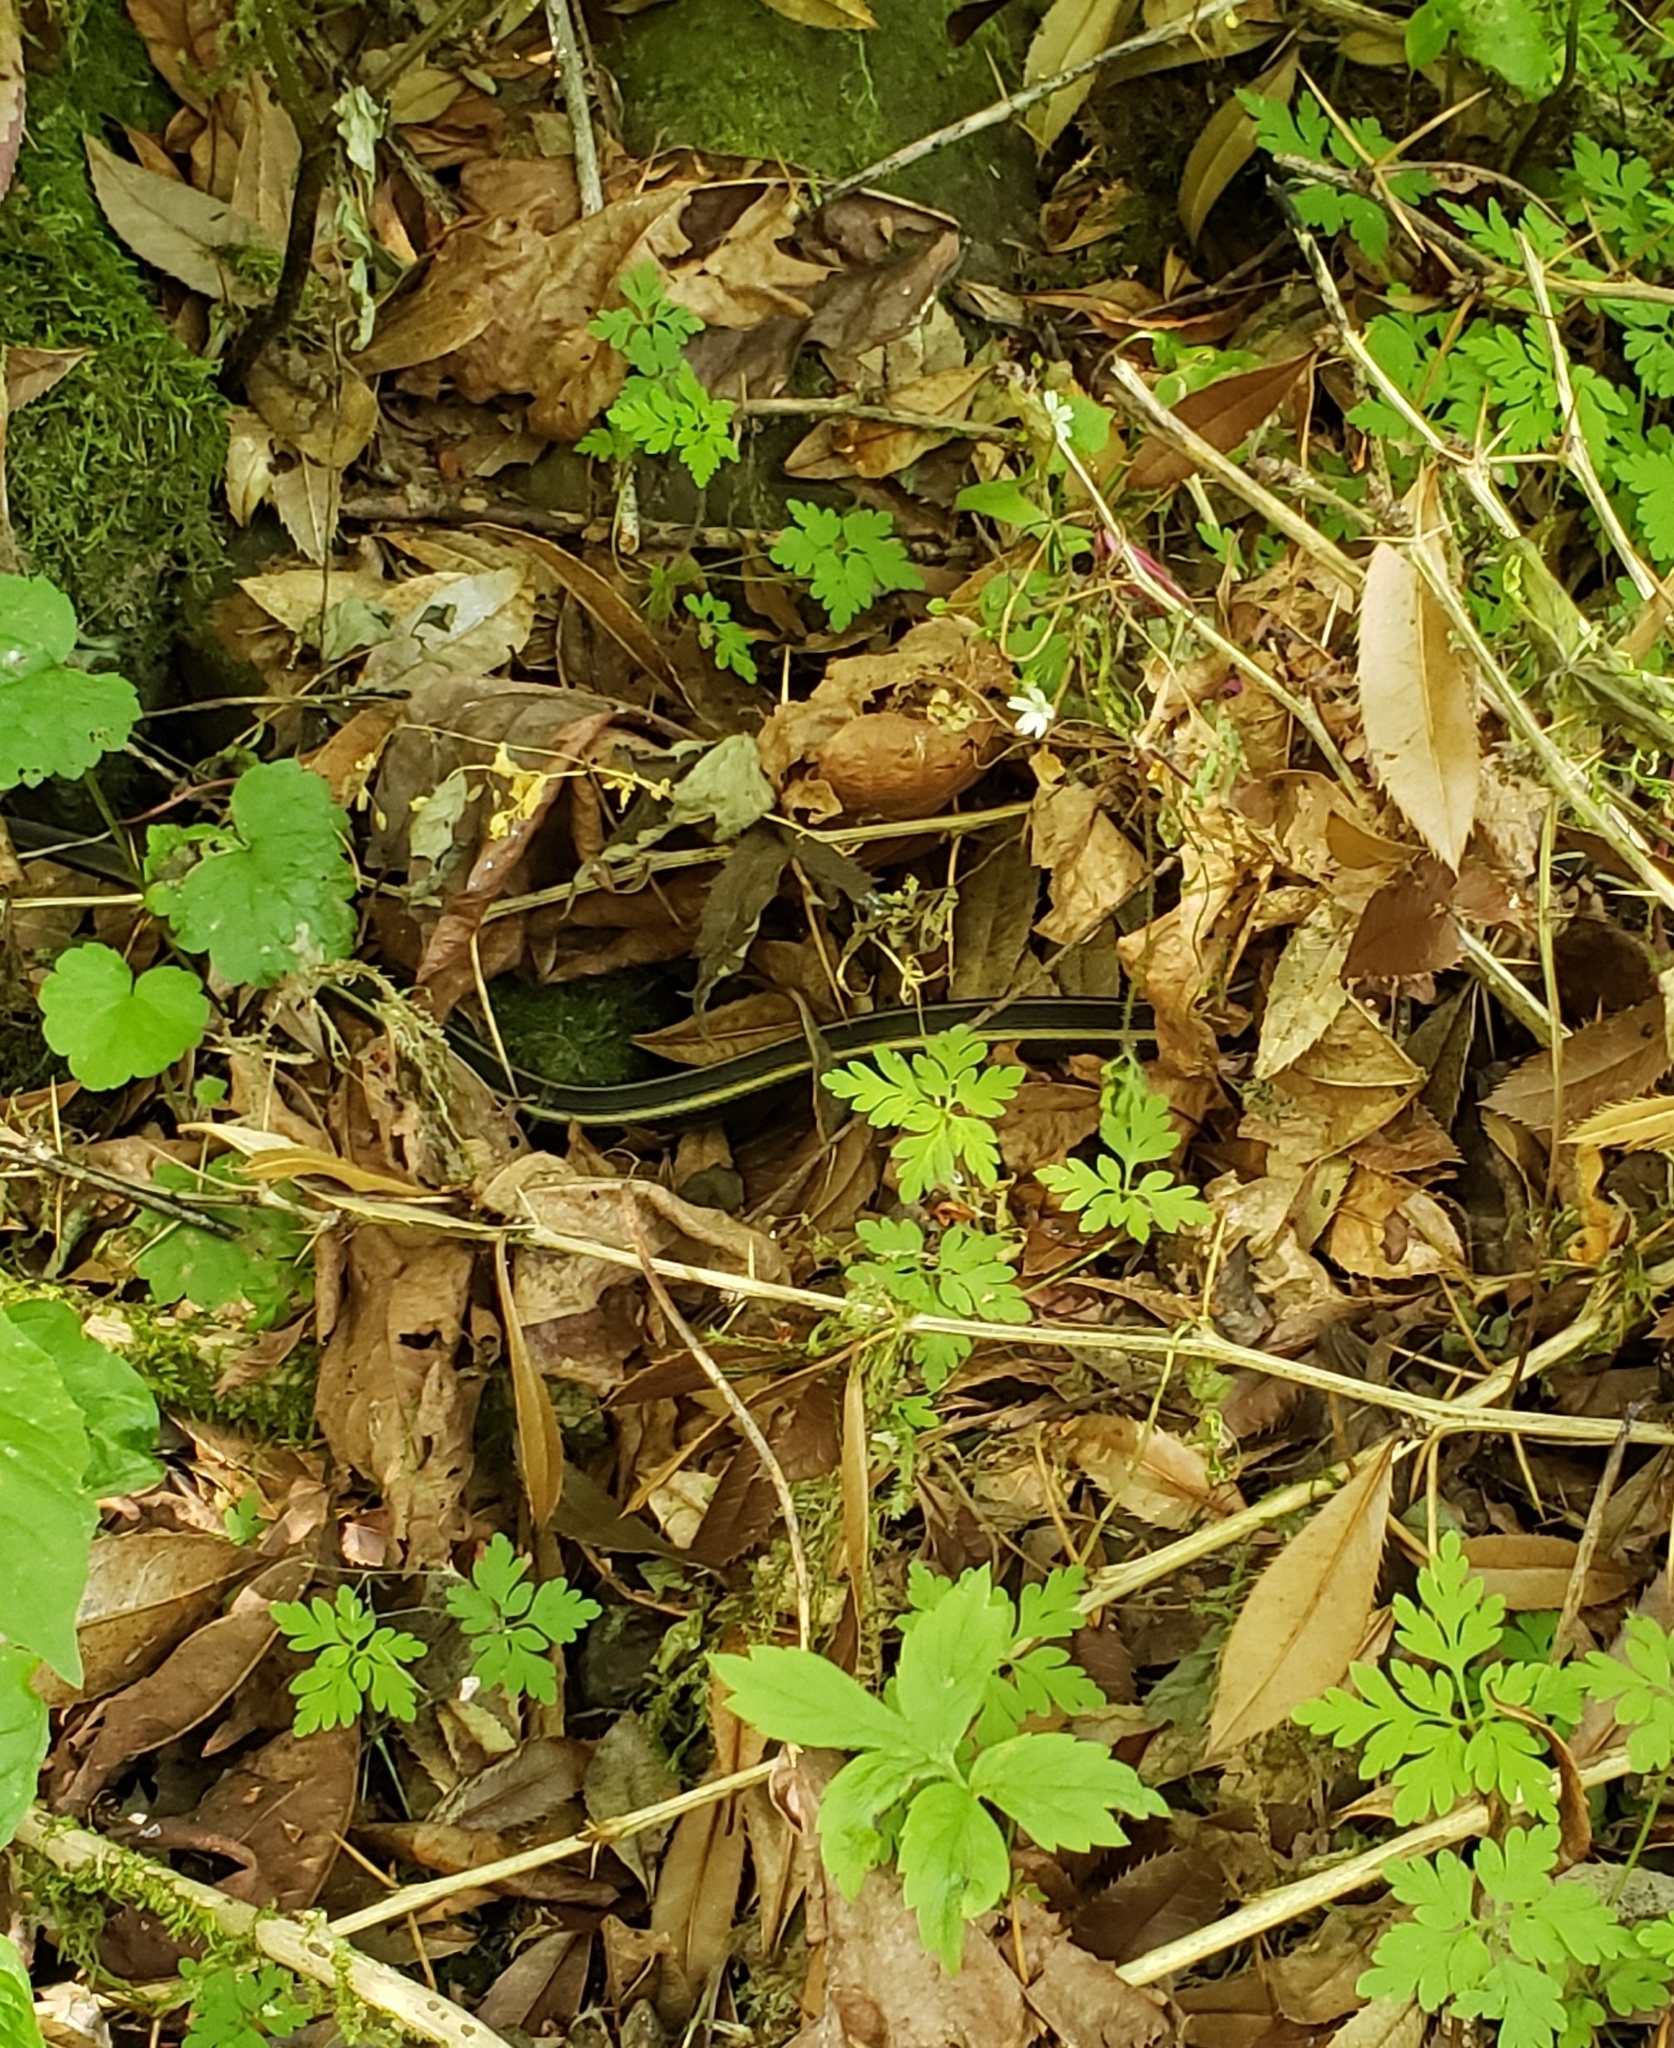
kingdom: Animalia
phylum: Chordata
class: Squamata
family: Colubridae
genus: Thamnophis
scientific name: Thamnophis ordinoides
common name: Northwestern garter snake
